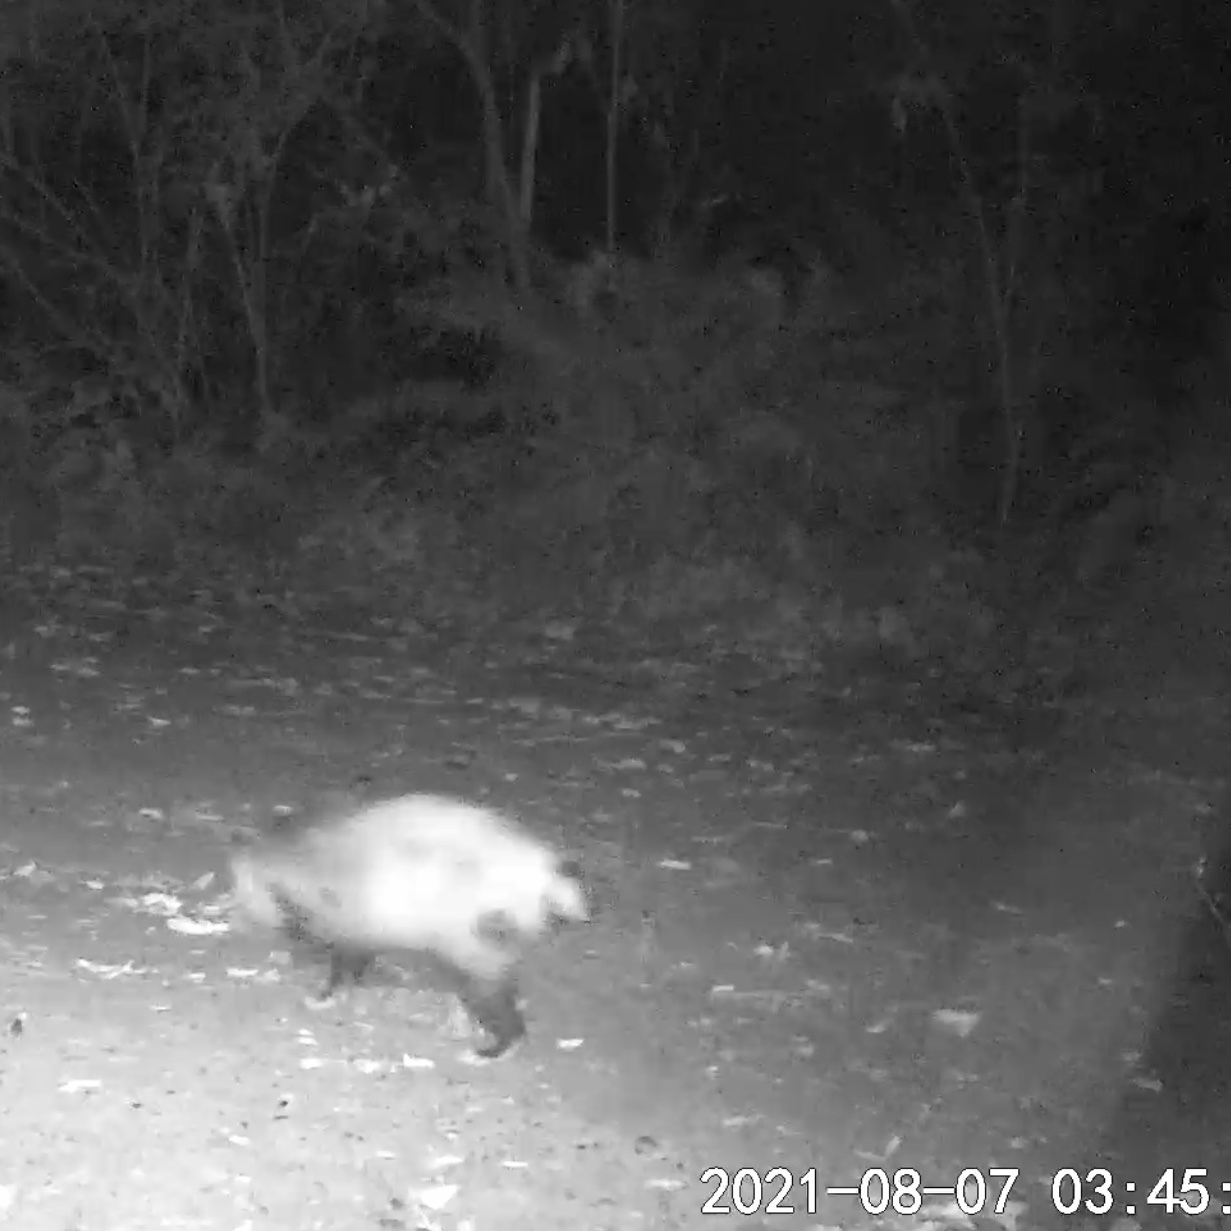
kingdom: Animalia
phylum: Chordata
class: Mammalia
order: Didelphimorphia
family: Didelphidae
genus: Didelphis
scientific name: Didelphis virginiana
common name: Virginia opossum
